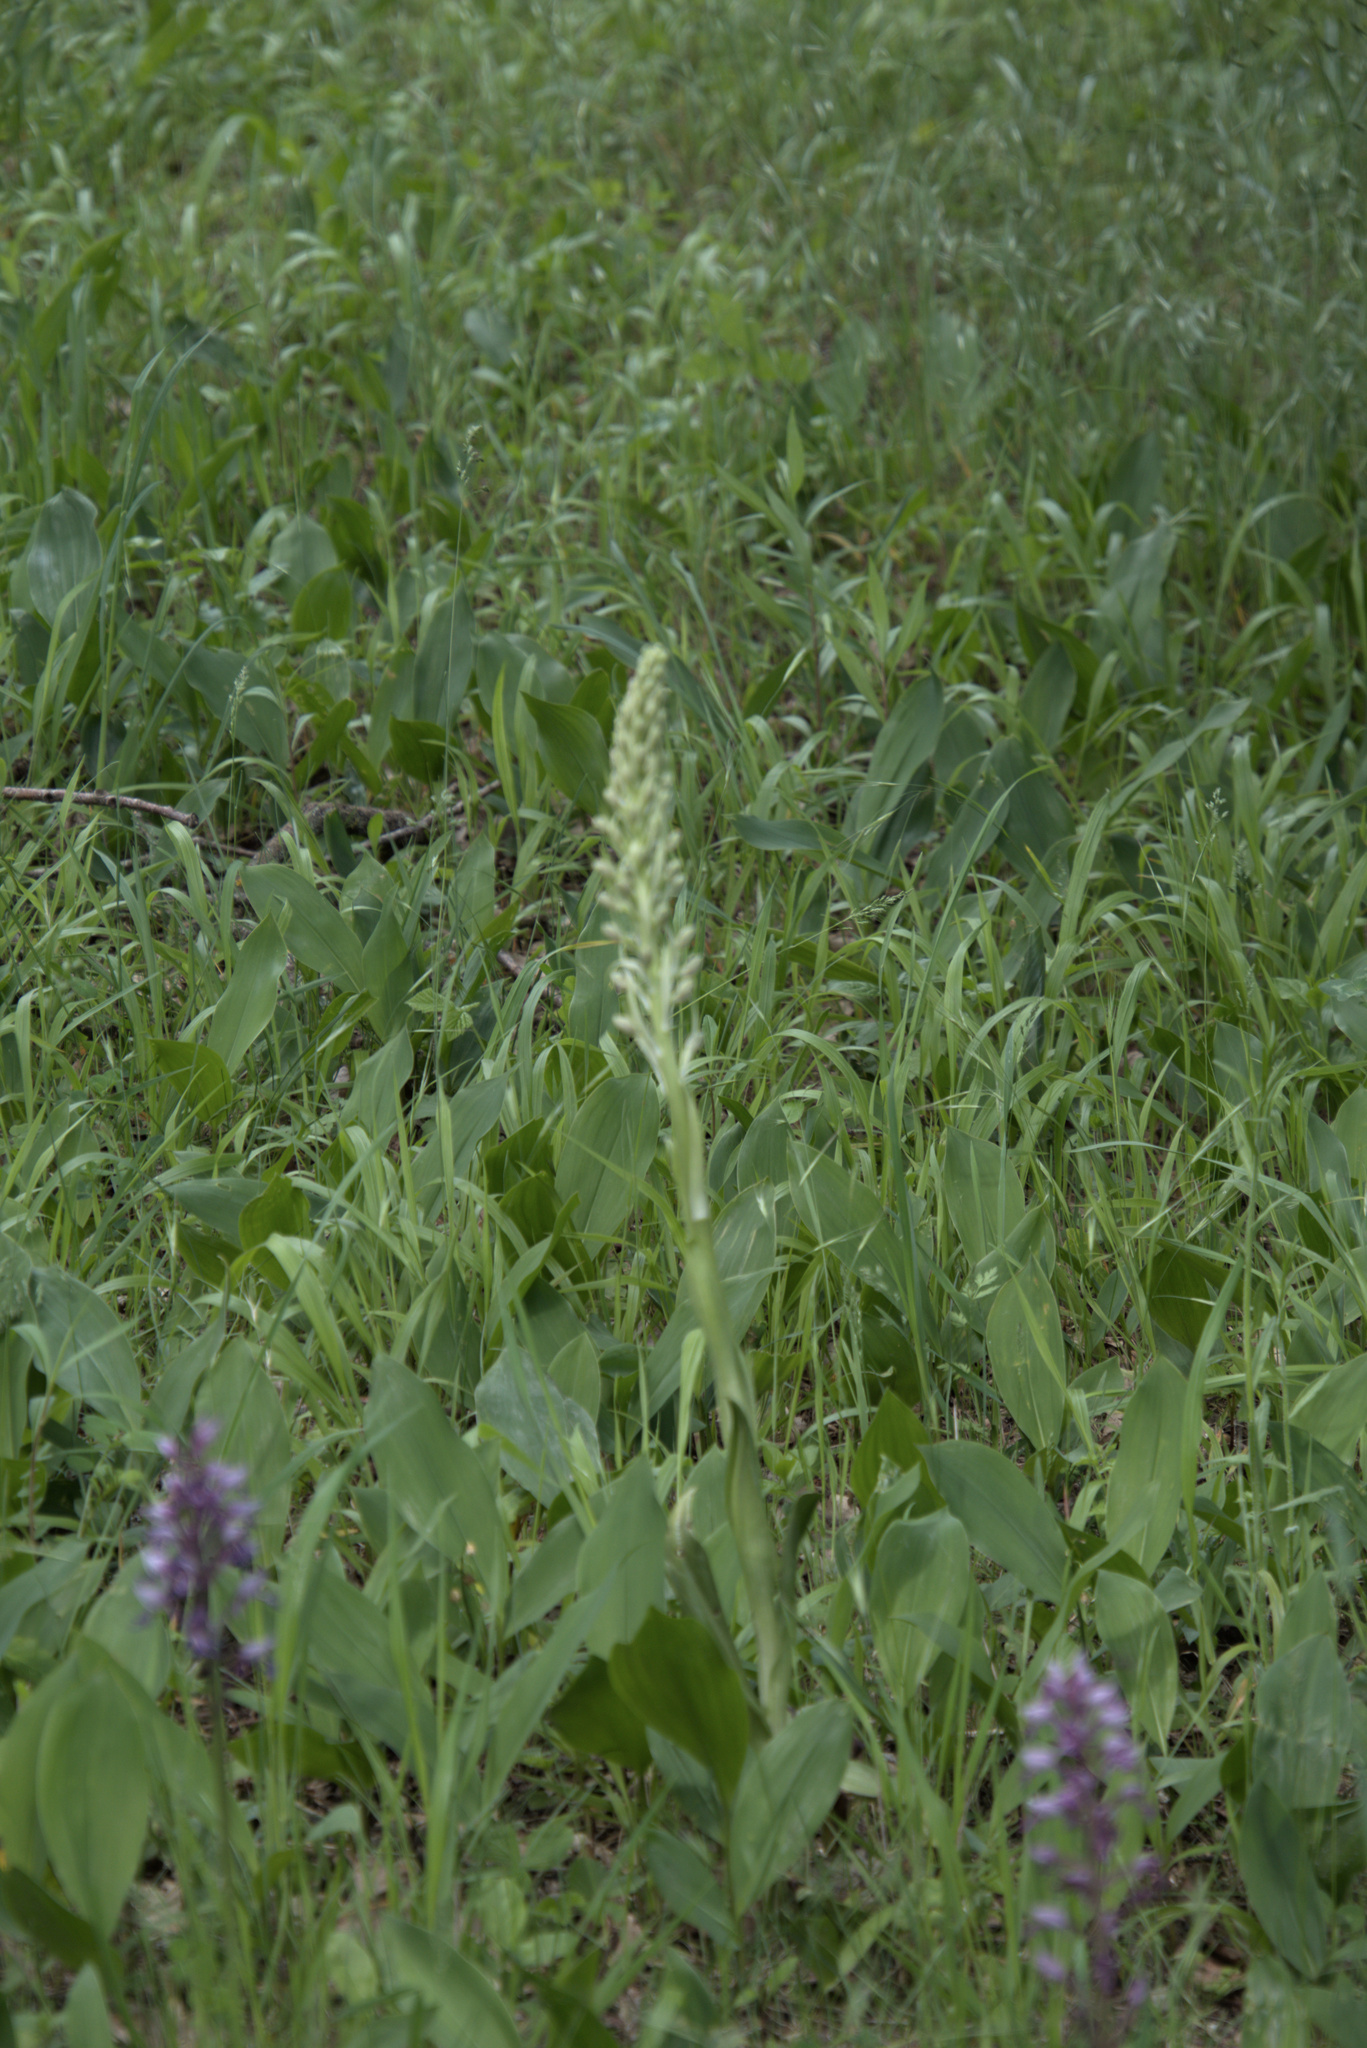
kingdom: Plantae
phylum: Tracheophyta
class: Liliopsida
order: Asparagales
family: Orchidaceae
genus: Himantoglossum
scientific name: Himantoglossum hircinum
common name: Lizard orchid
